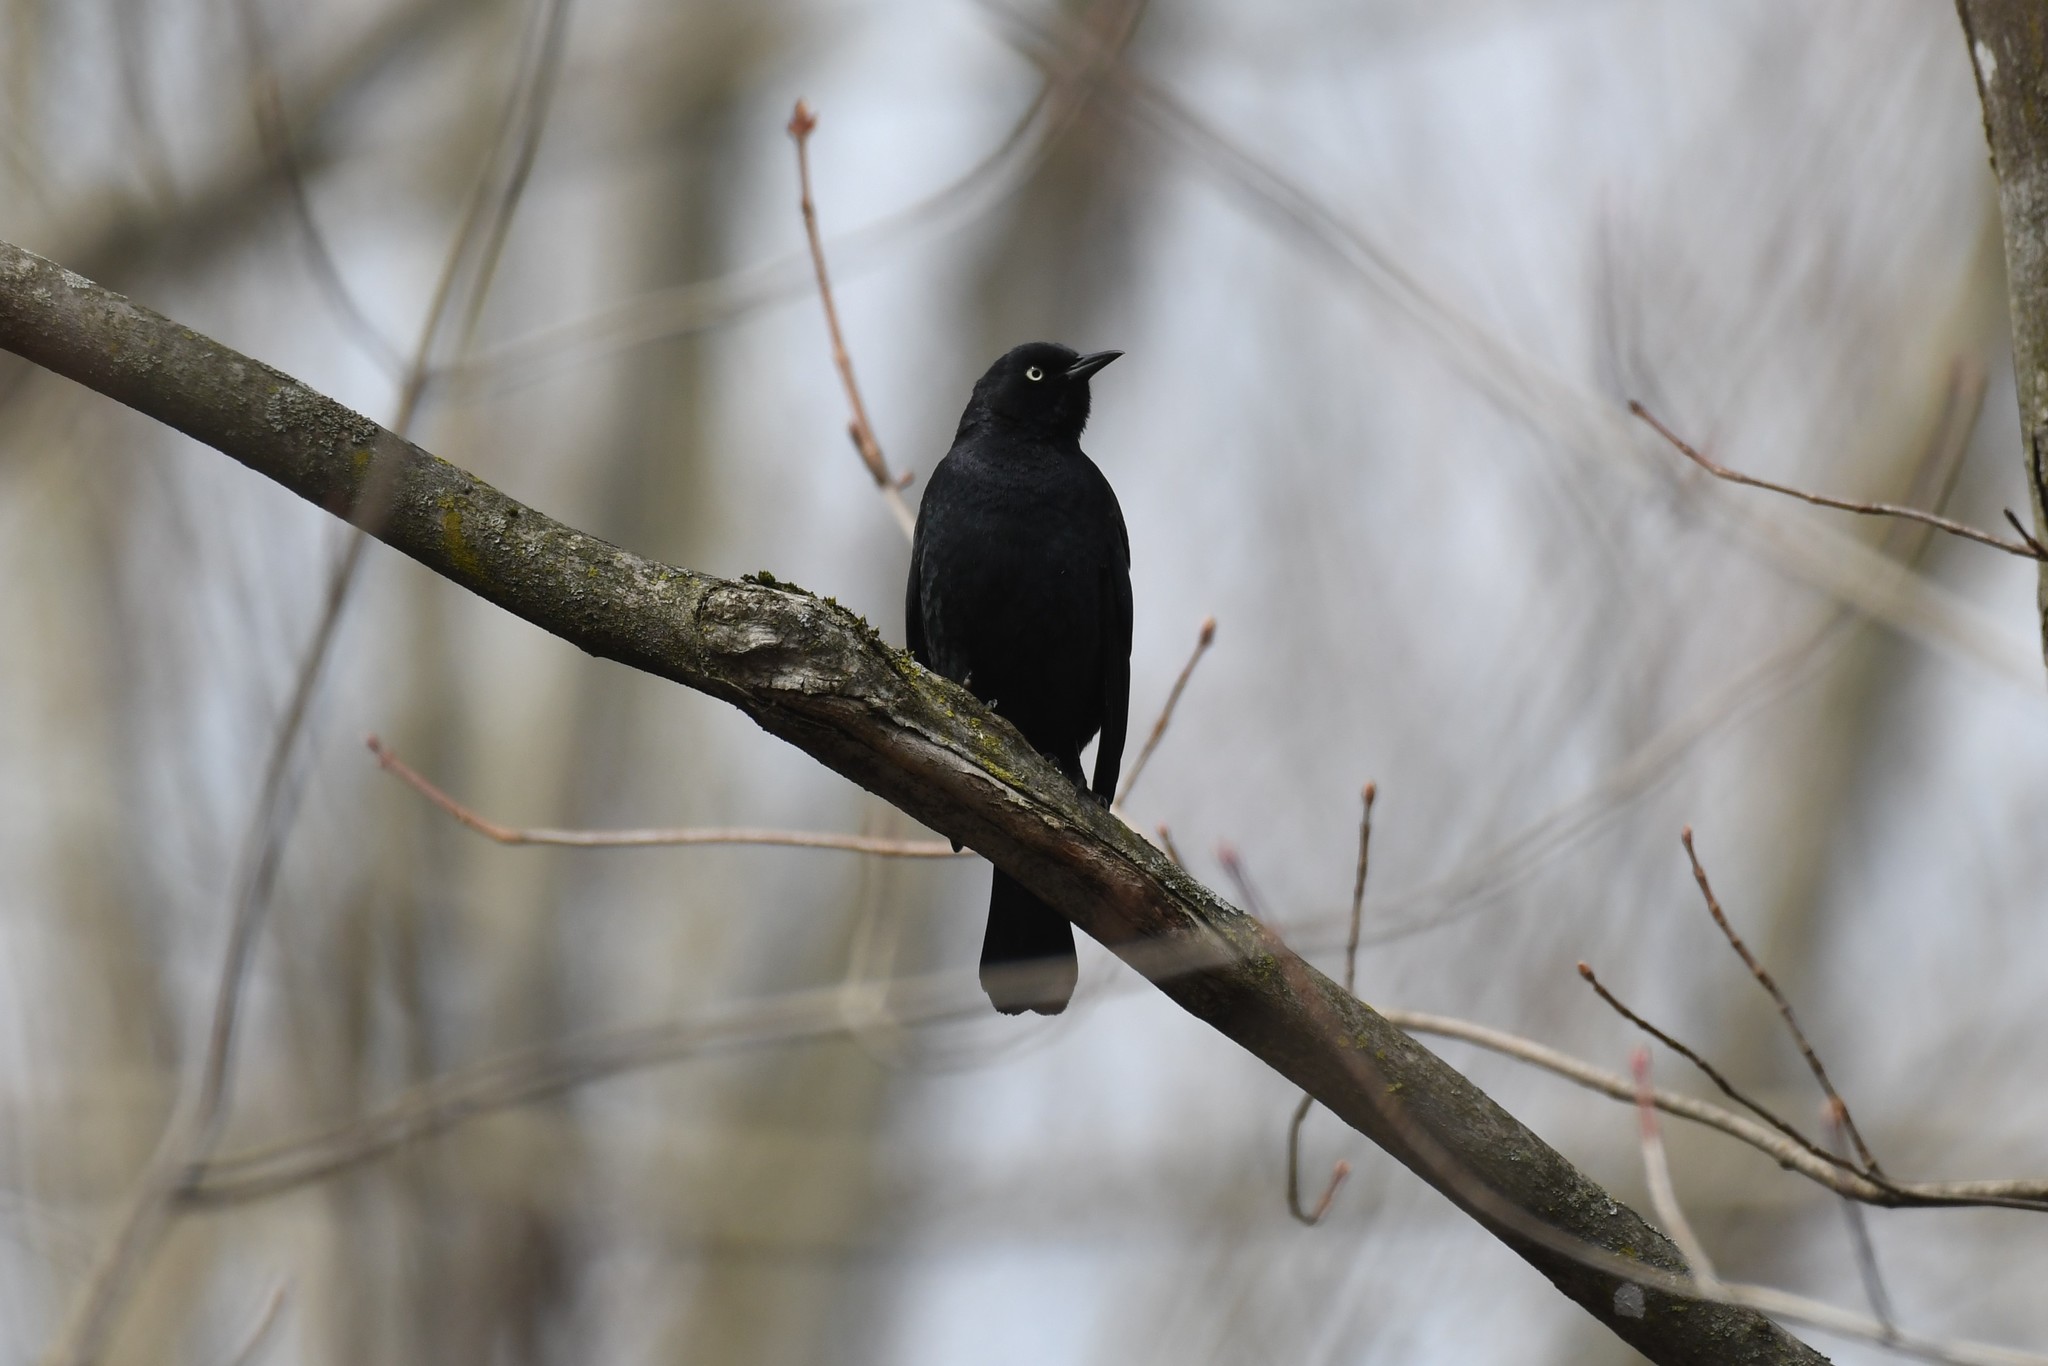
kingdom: Animalia
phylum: Chordata
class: Aves
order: Passeriformes
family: Icteridae
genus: Euphagus
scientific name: Euphagus carolinus
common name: Rusty blackbird
